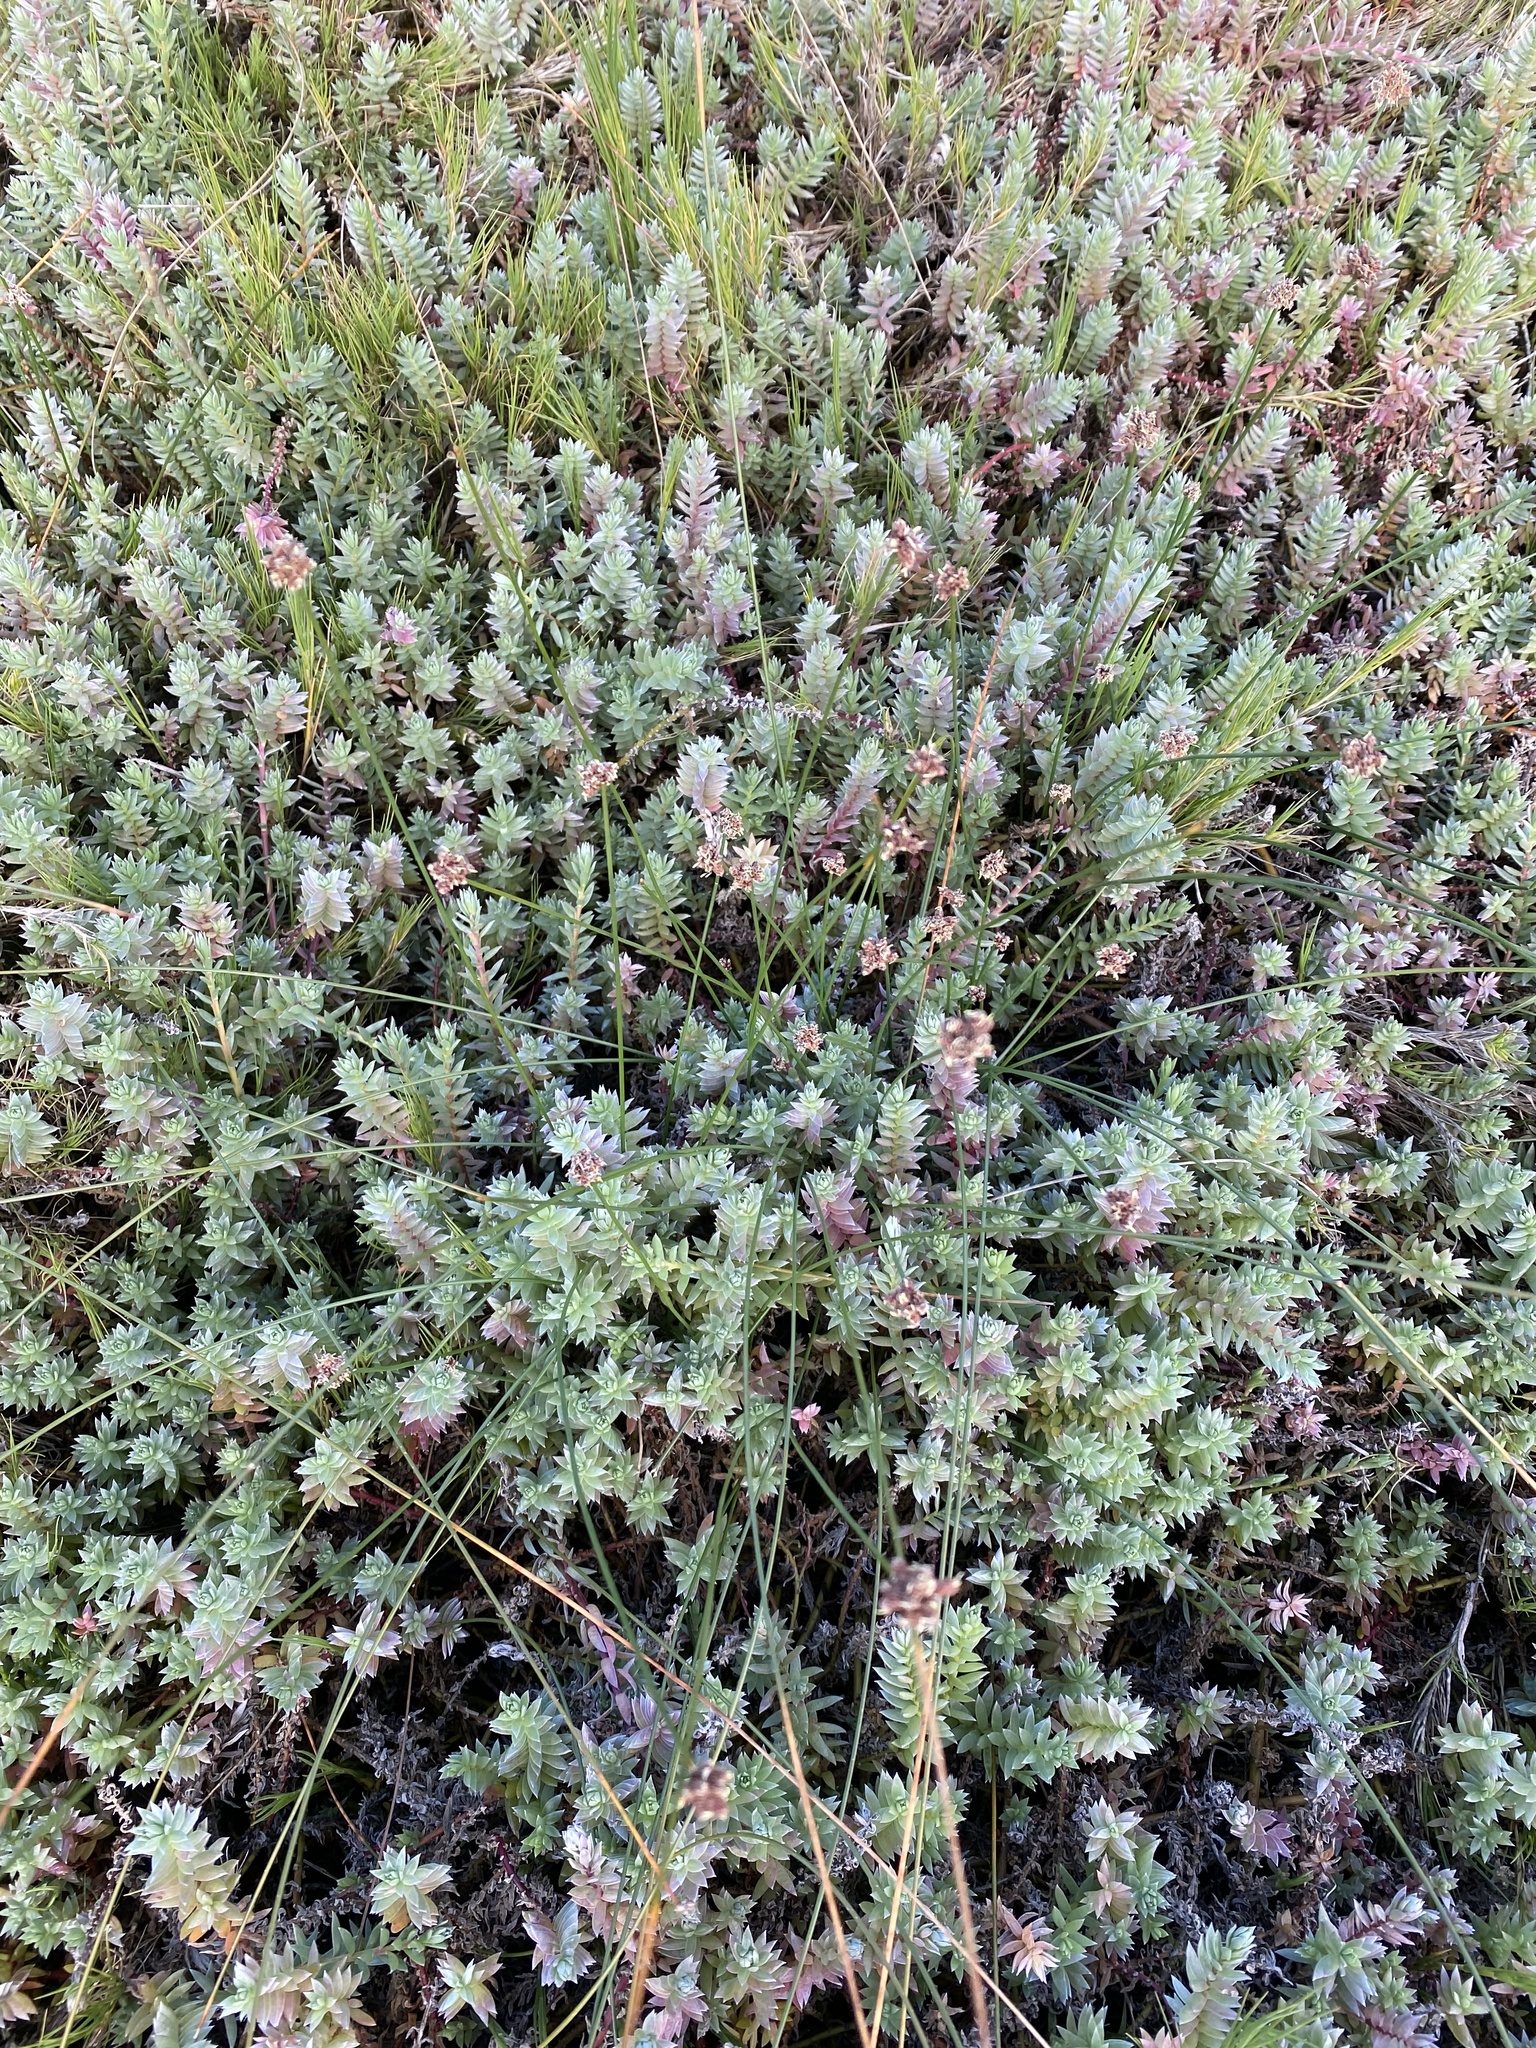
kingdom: Plantae
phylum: Tracheophyta
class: Magnoliopsida
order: Caryophyllales
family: Amaranthaceae
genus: Chenolea
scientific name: Chenolea diffusa
